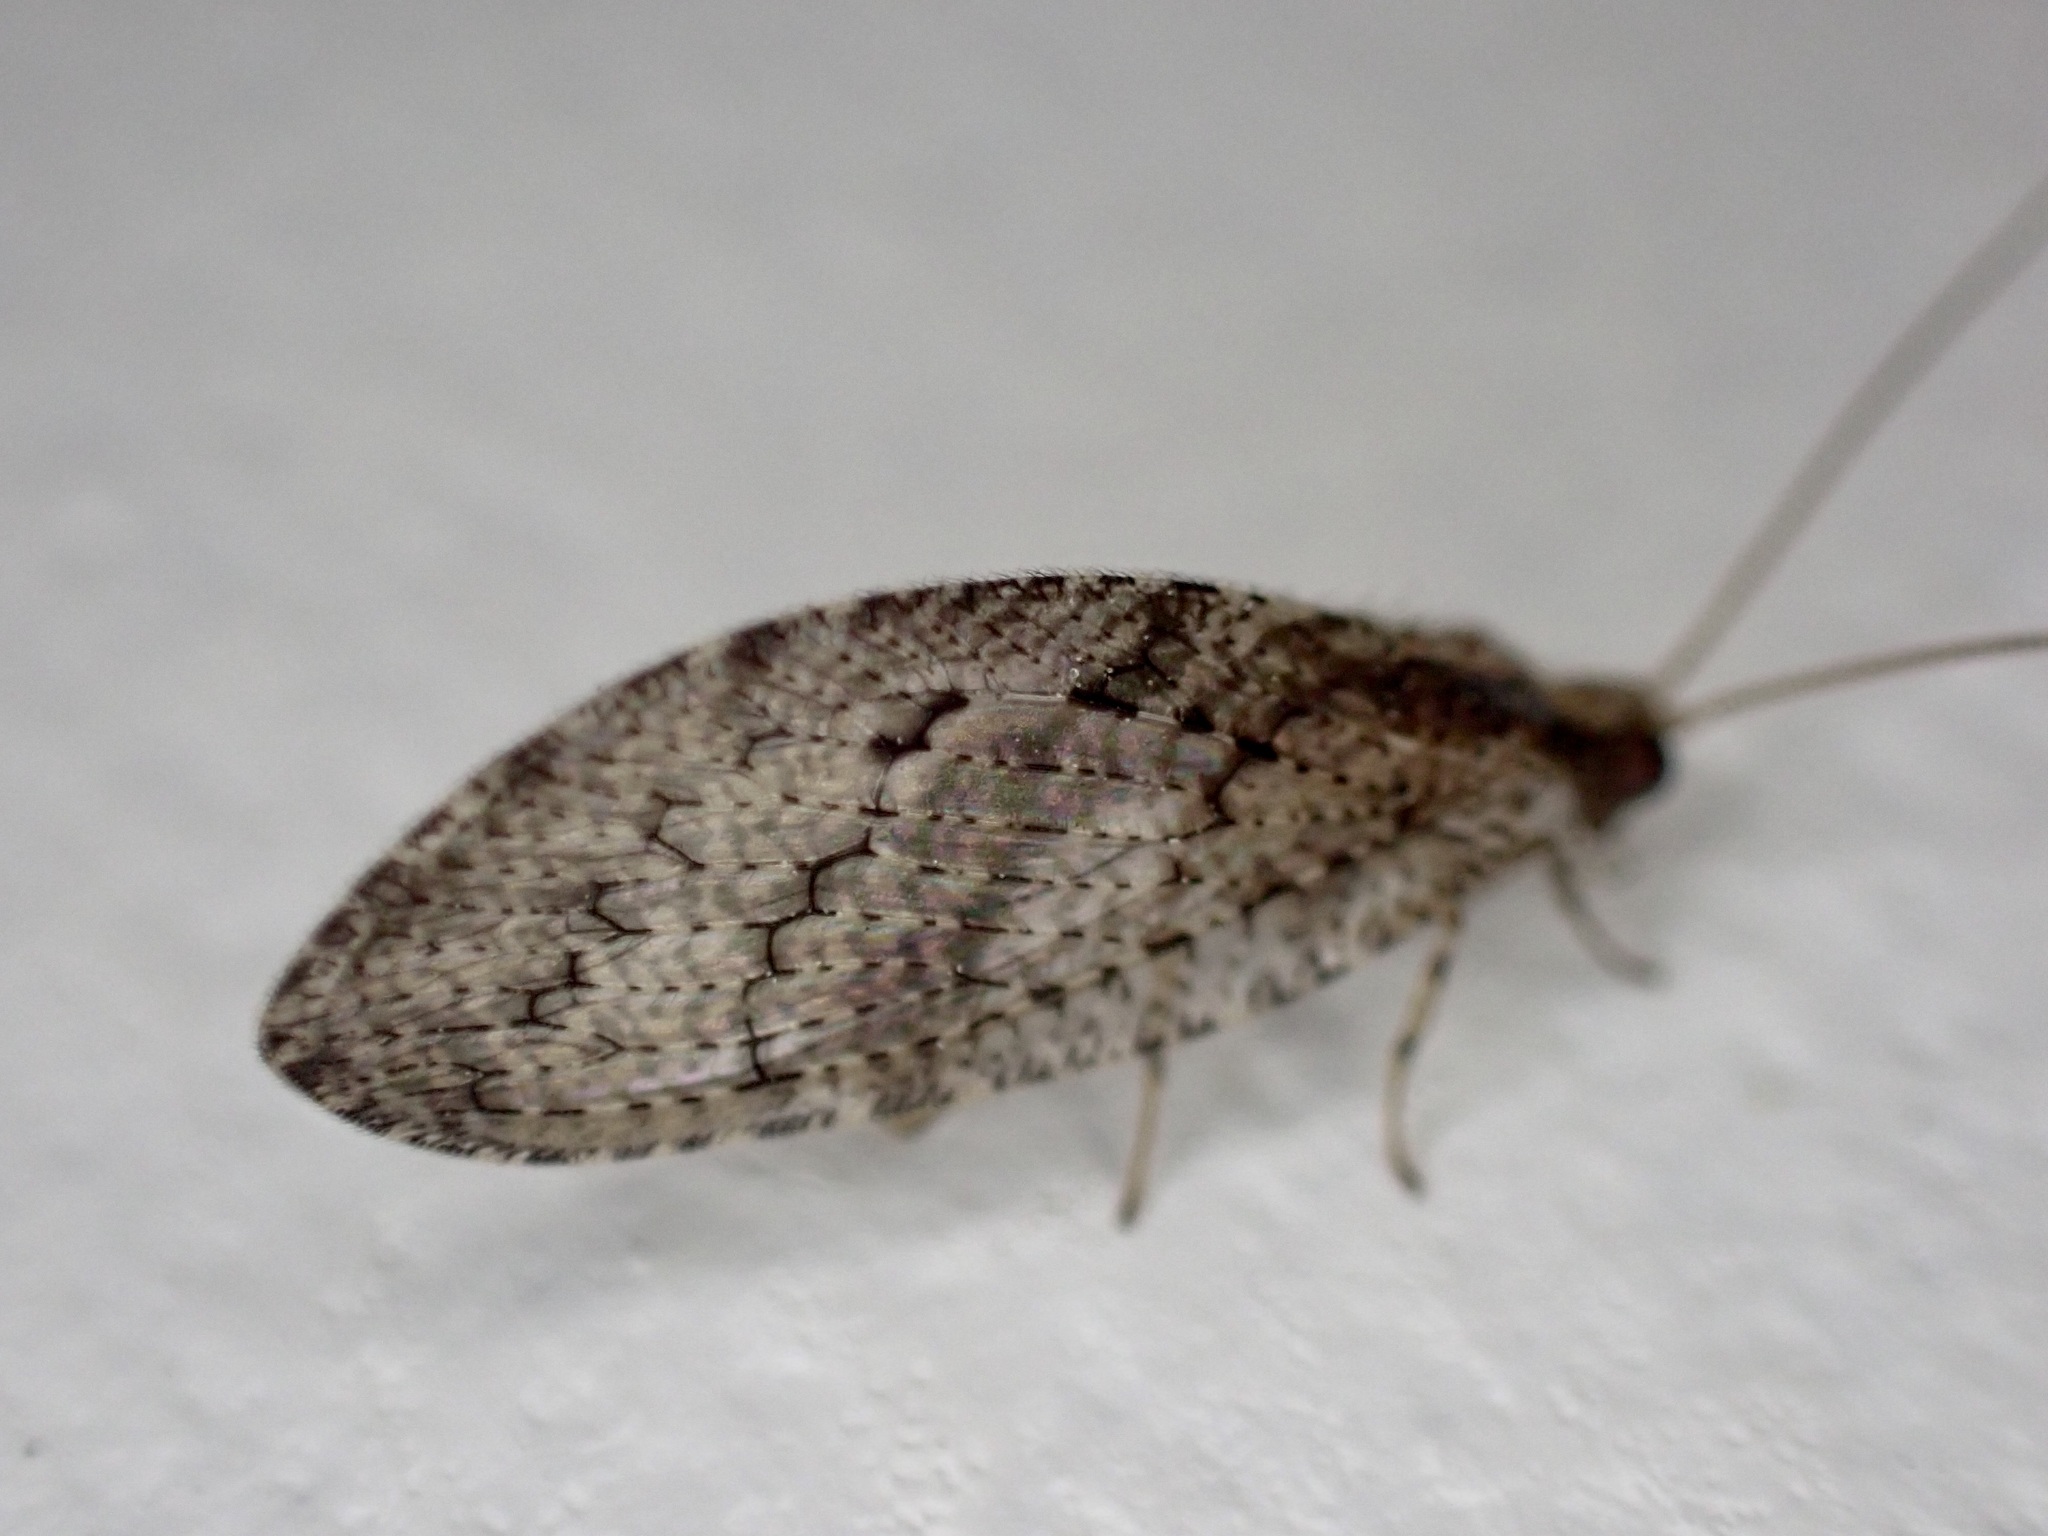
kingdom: Animalia
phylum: Arthropoda
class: Insecta
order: Neuroptera
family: Hemerobiidae
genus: Wesmaelius
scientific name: Wesmaelius subnebulosus
